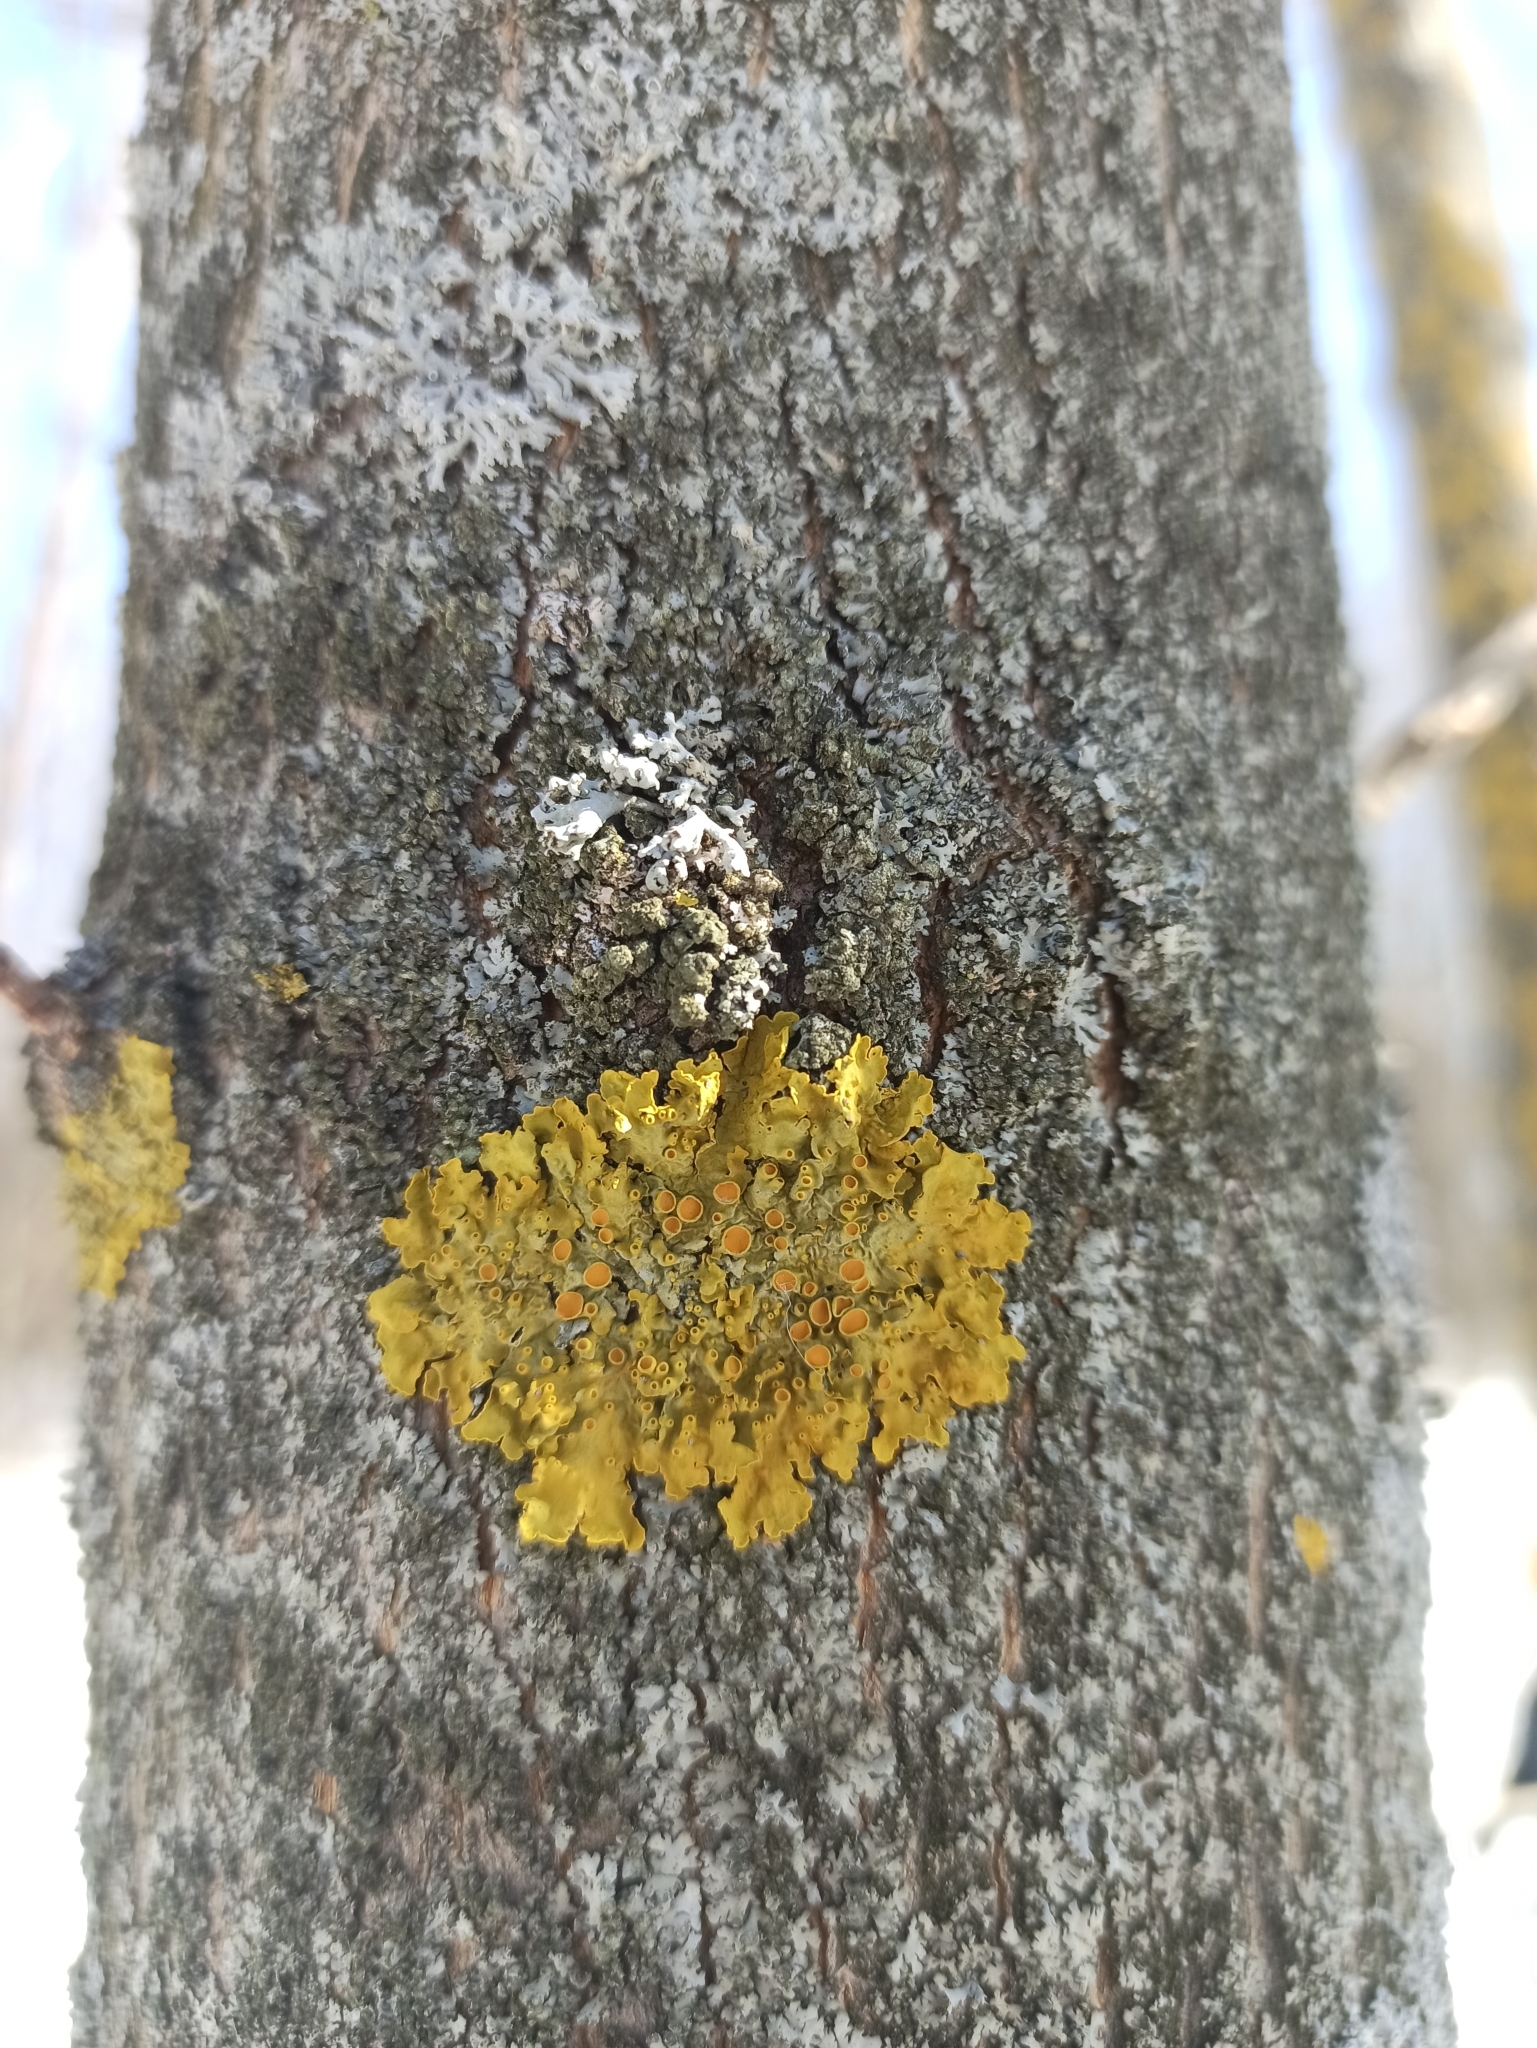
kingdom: Fungi
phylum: Ascomycota
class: Lecanoromycetes
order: Teloschistales
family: Teloschistaceae
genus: Xanthoria
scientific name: Xanthoria parietina
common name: Common orange lichen
